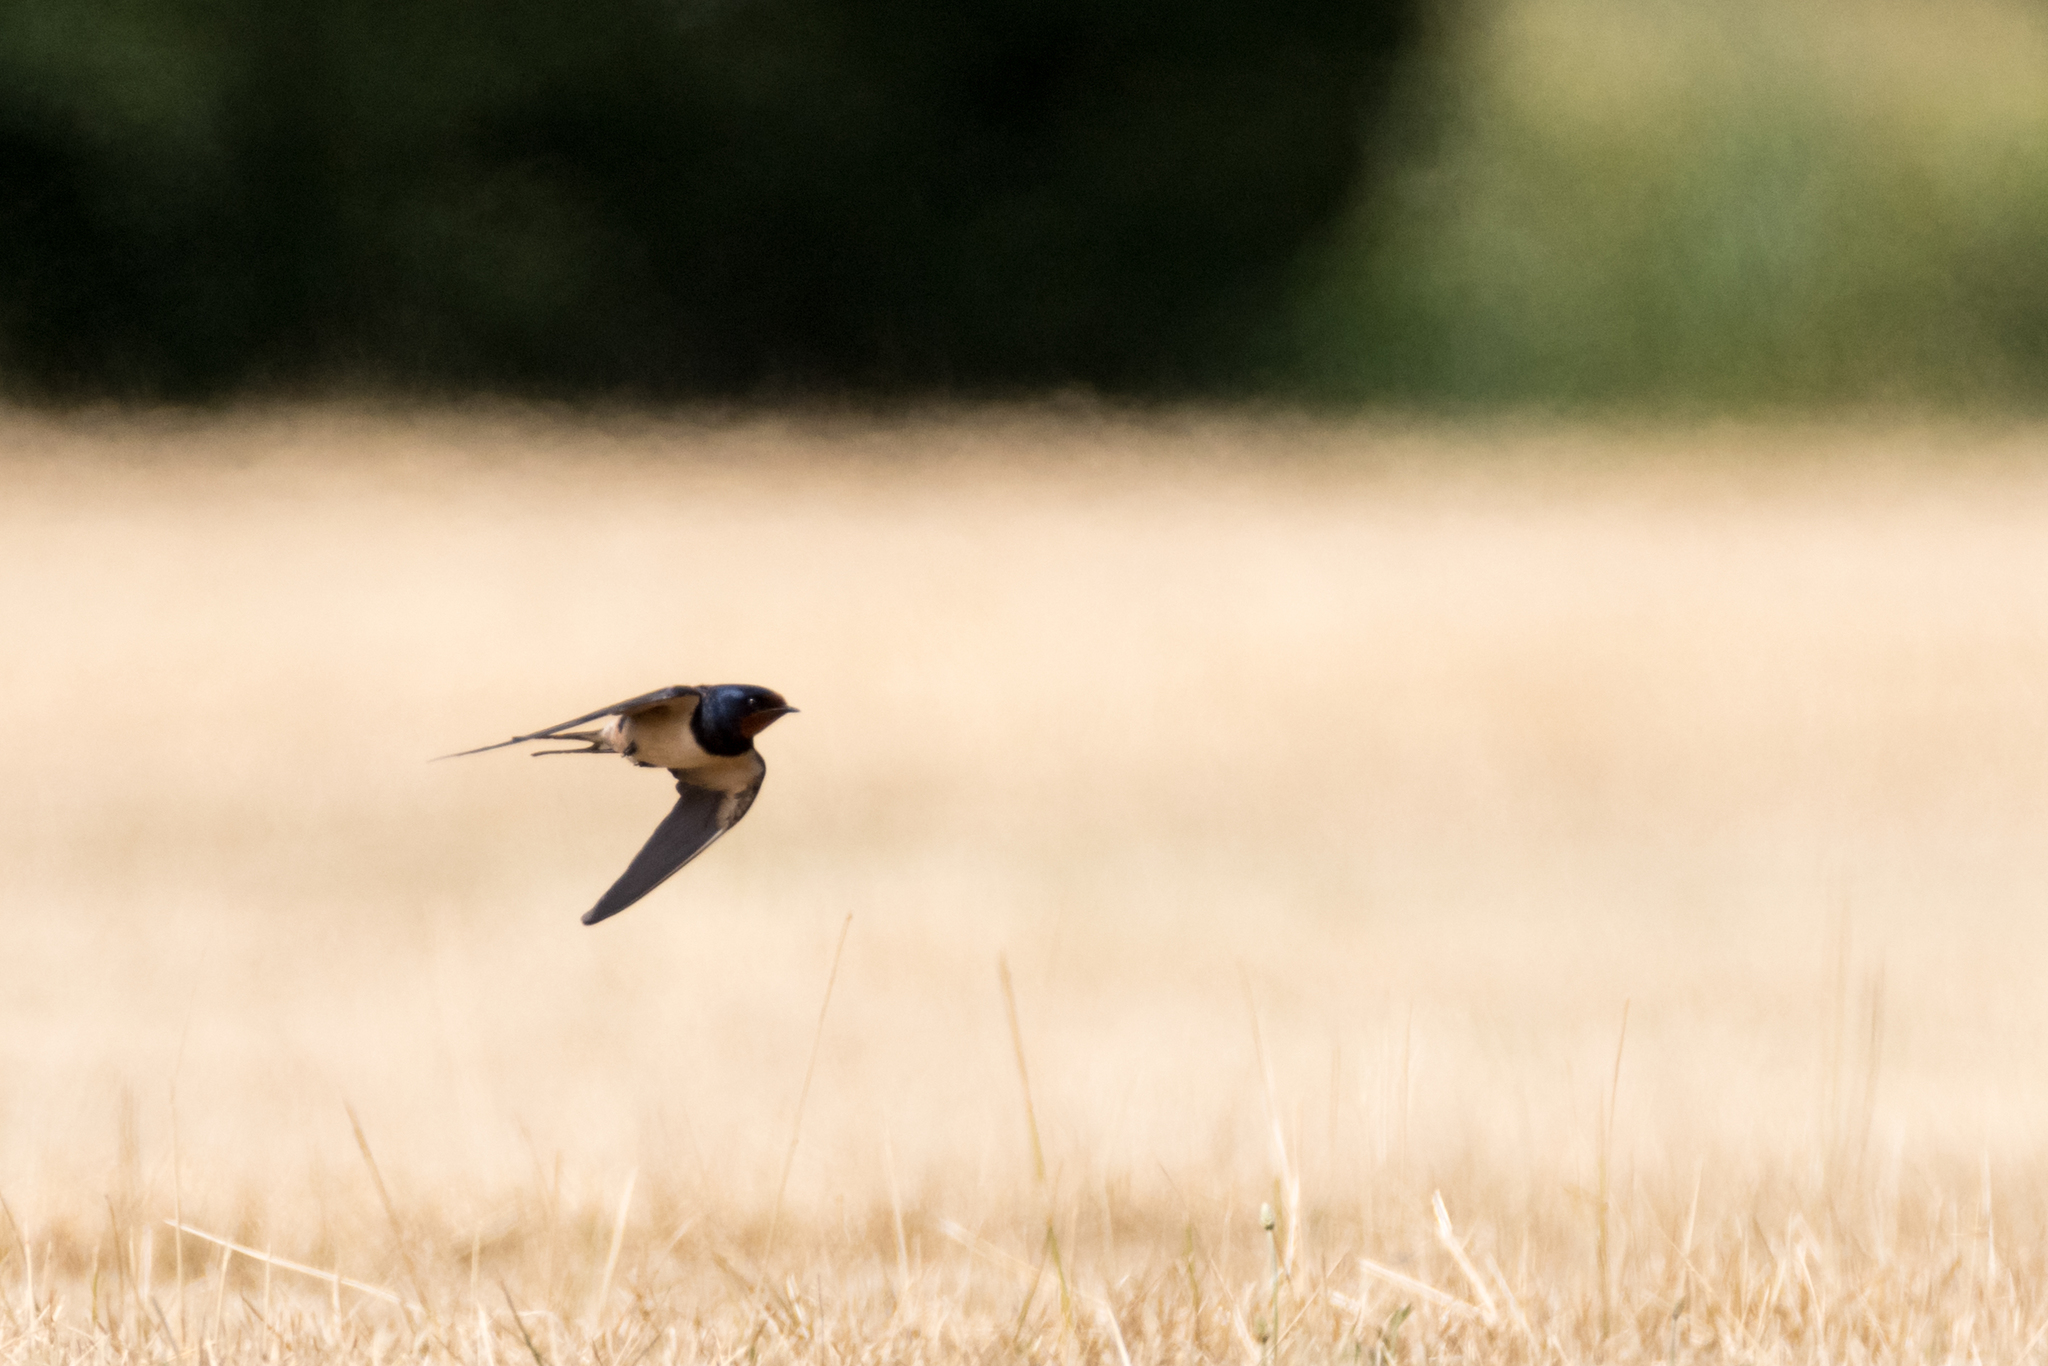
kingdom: Animalia
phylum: Chordata
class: Aves
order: Passeriformes
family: Hirundinidae
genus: Hirundo
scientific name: Hirundo rustica
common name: Barn swallow
